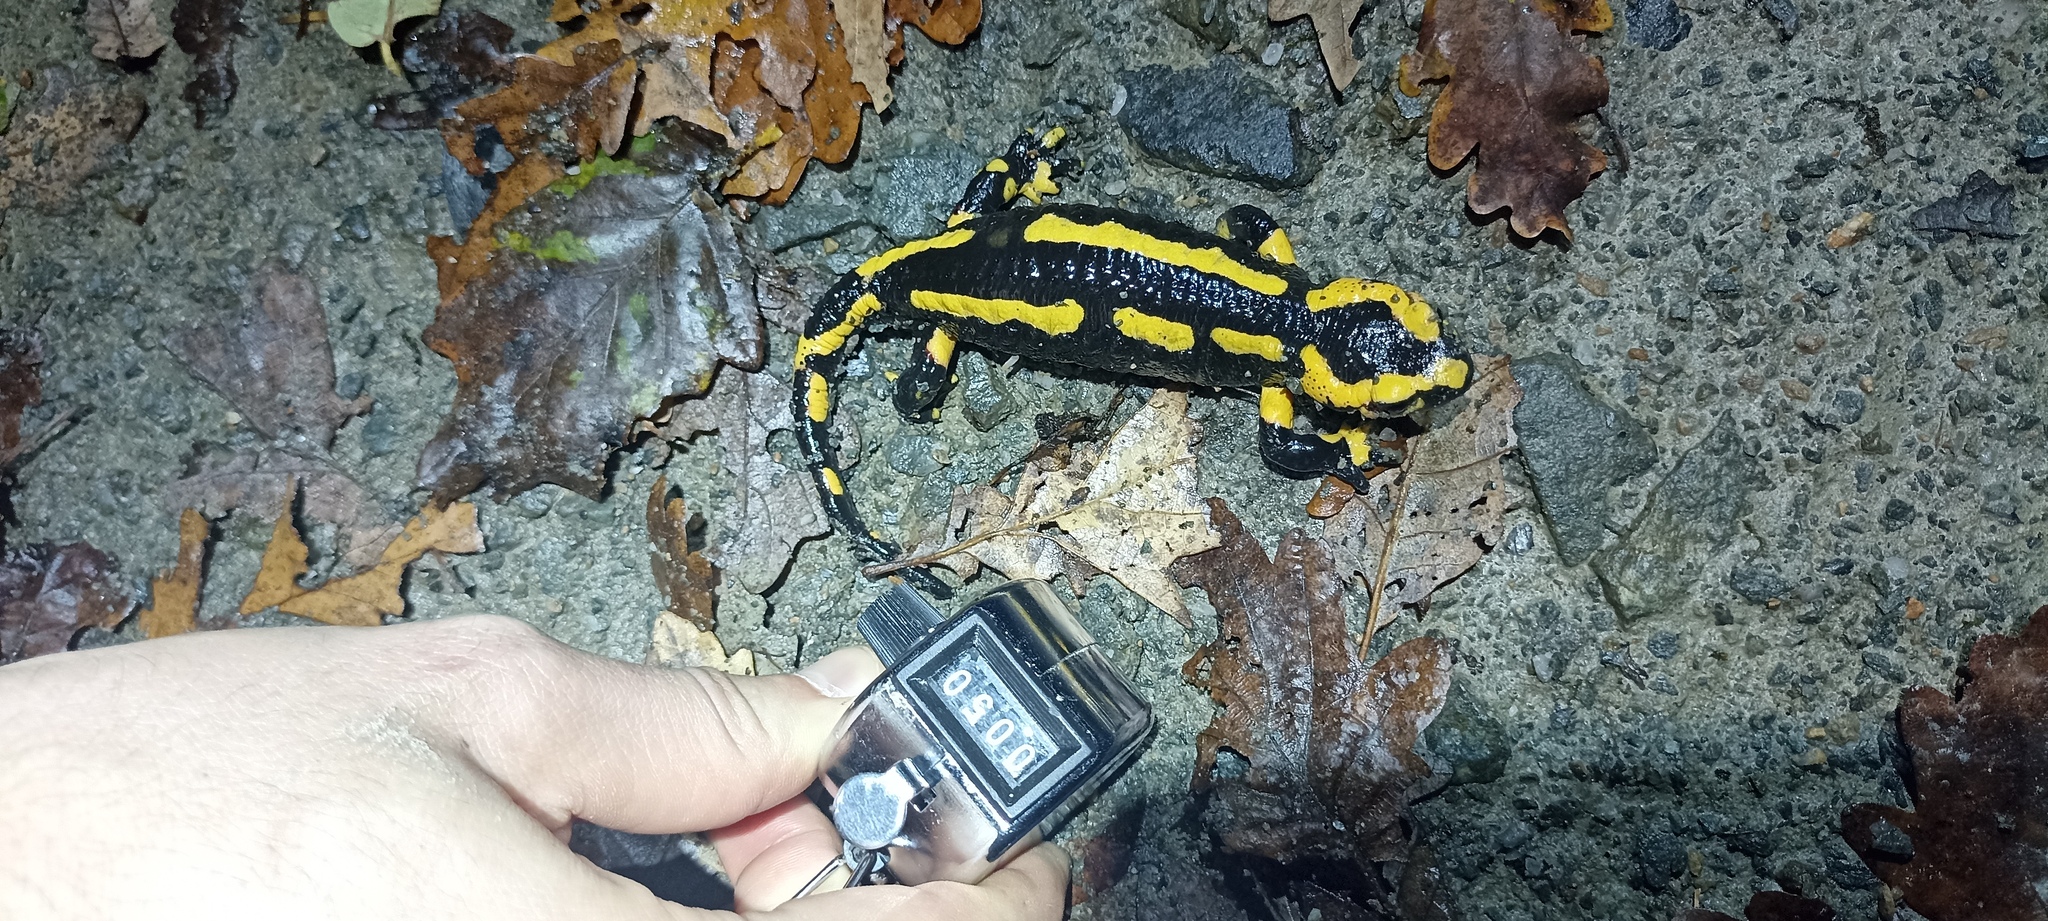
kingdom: Animalia
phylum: Chordata
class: Amphibia
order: Caudata
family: Salamandridae
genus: Salamandra
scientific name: Salamandra salamandra
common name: Fire salamander
